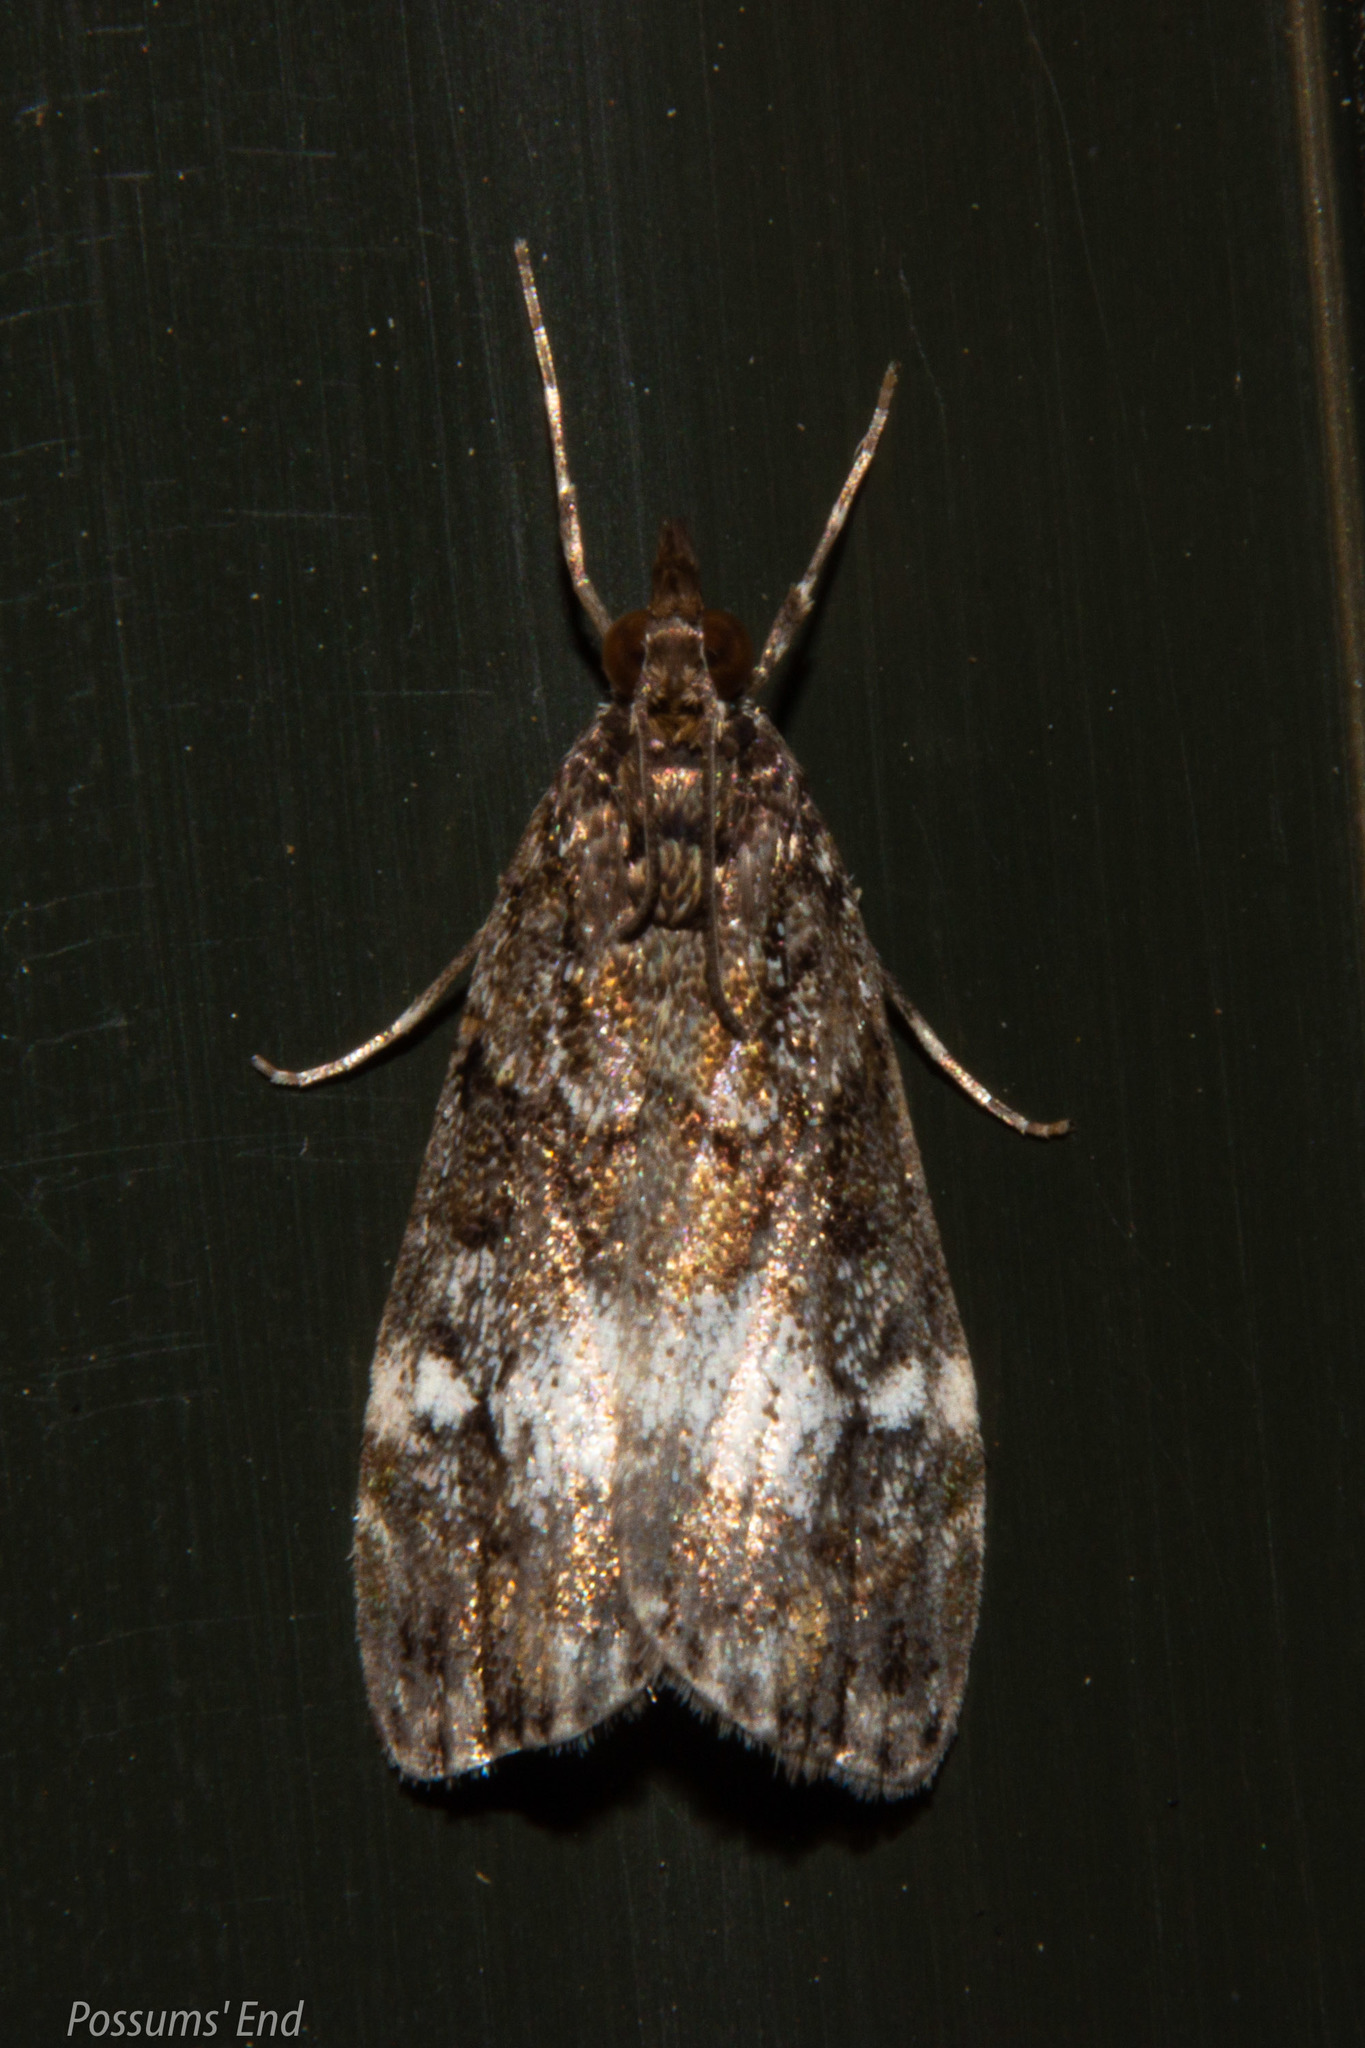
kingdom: Animalia
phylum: Arthropoda
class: Insecta
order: Lepidoptera
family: Crambidae
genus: Eudonia
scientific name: Eudonia dinodes
